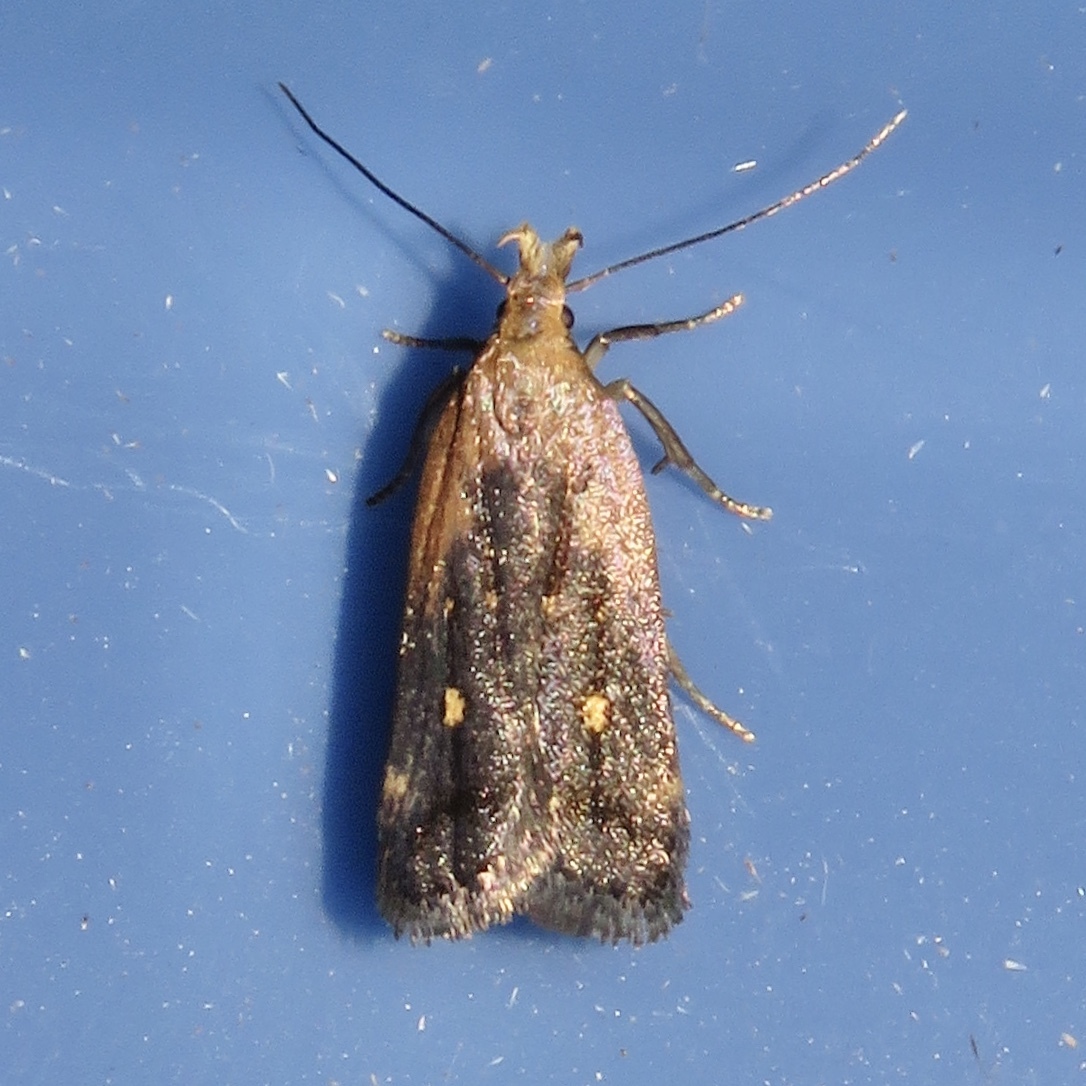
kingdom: Animalia
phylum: Arthropoda
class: Insecta
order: Lepidoptera
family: Gelechiidae
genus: Dichomeris
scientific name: Dichomeris copa
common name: Copa dichomeris moth
